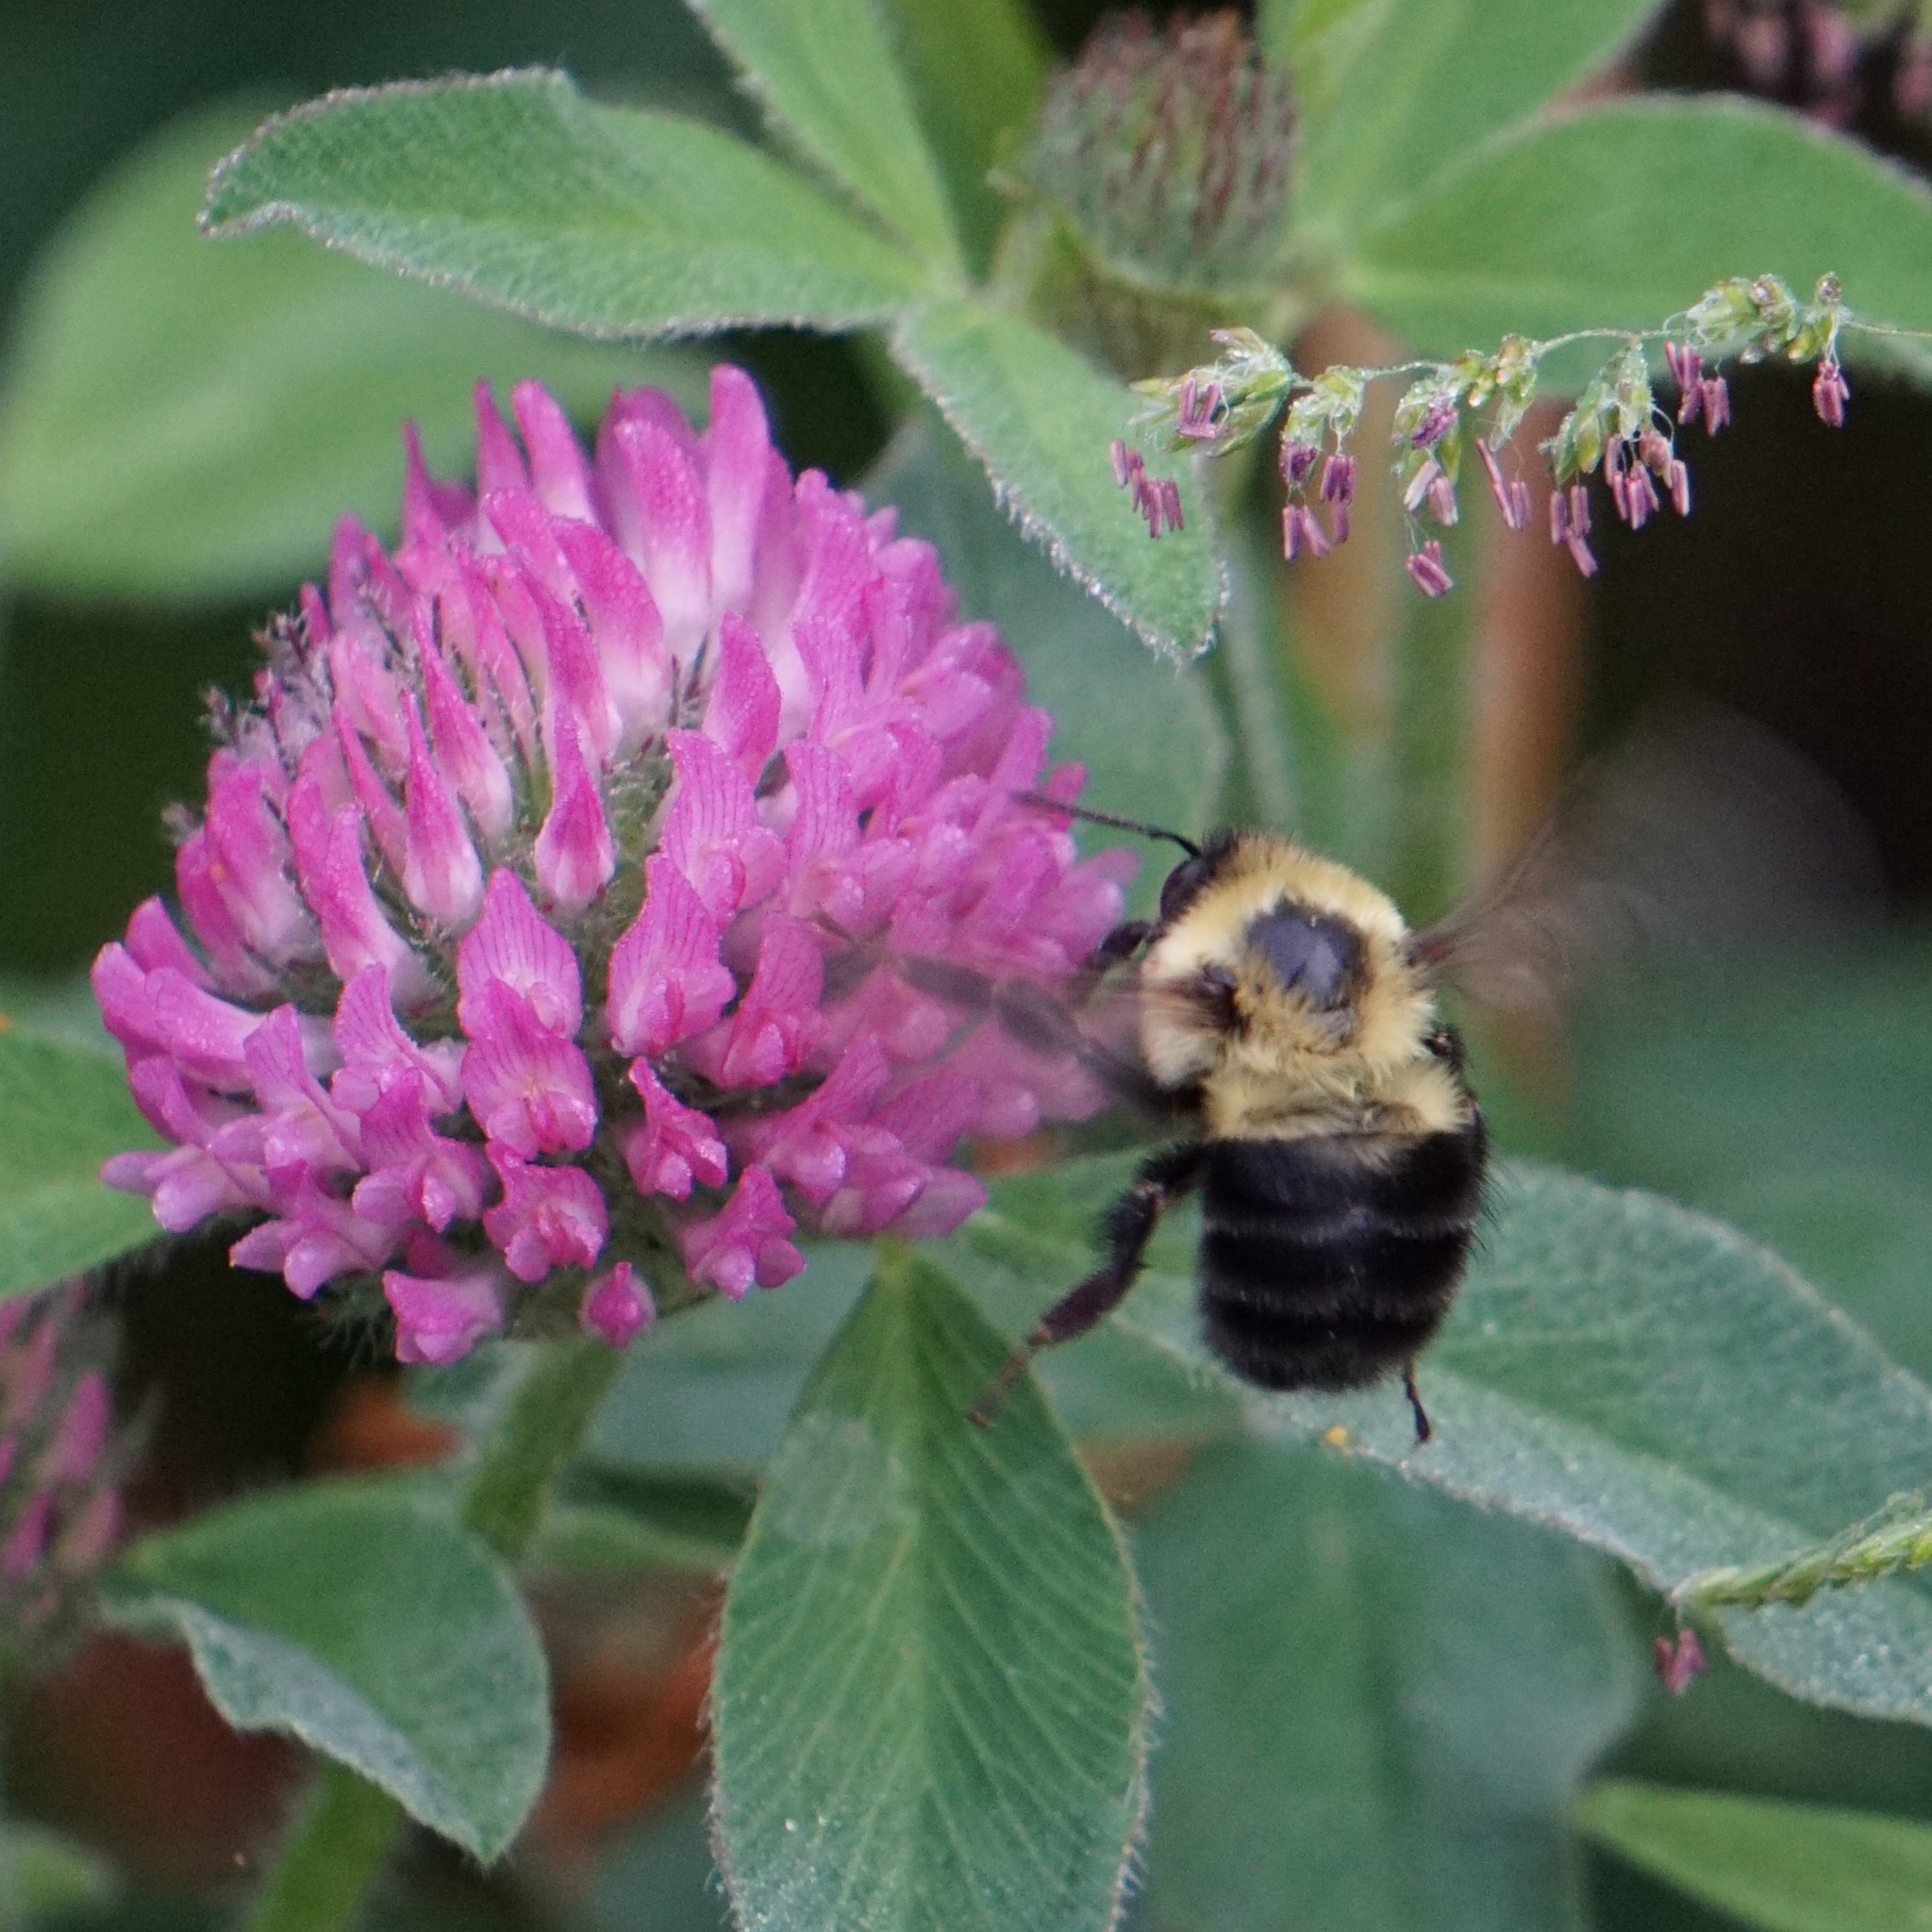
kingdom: Animalia
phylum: Arthropoda
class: Insecta
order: Hymenoptera
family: Apidae
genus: Bombus
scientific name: Bombus bimaculatus
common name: Two-spotted bumble bee
